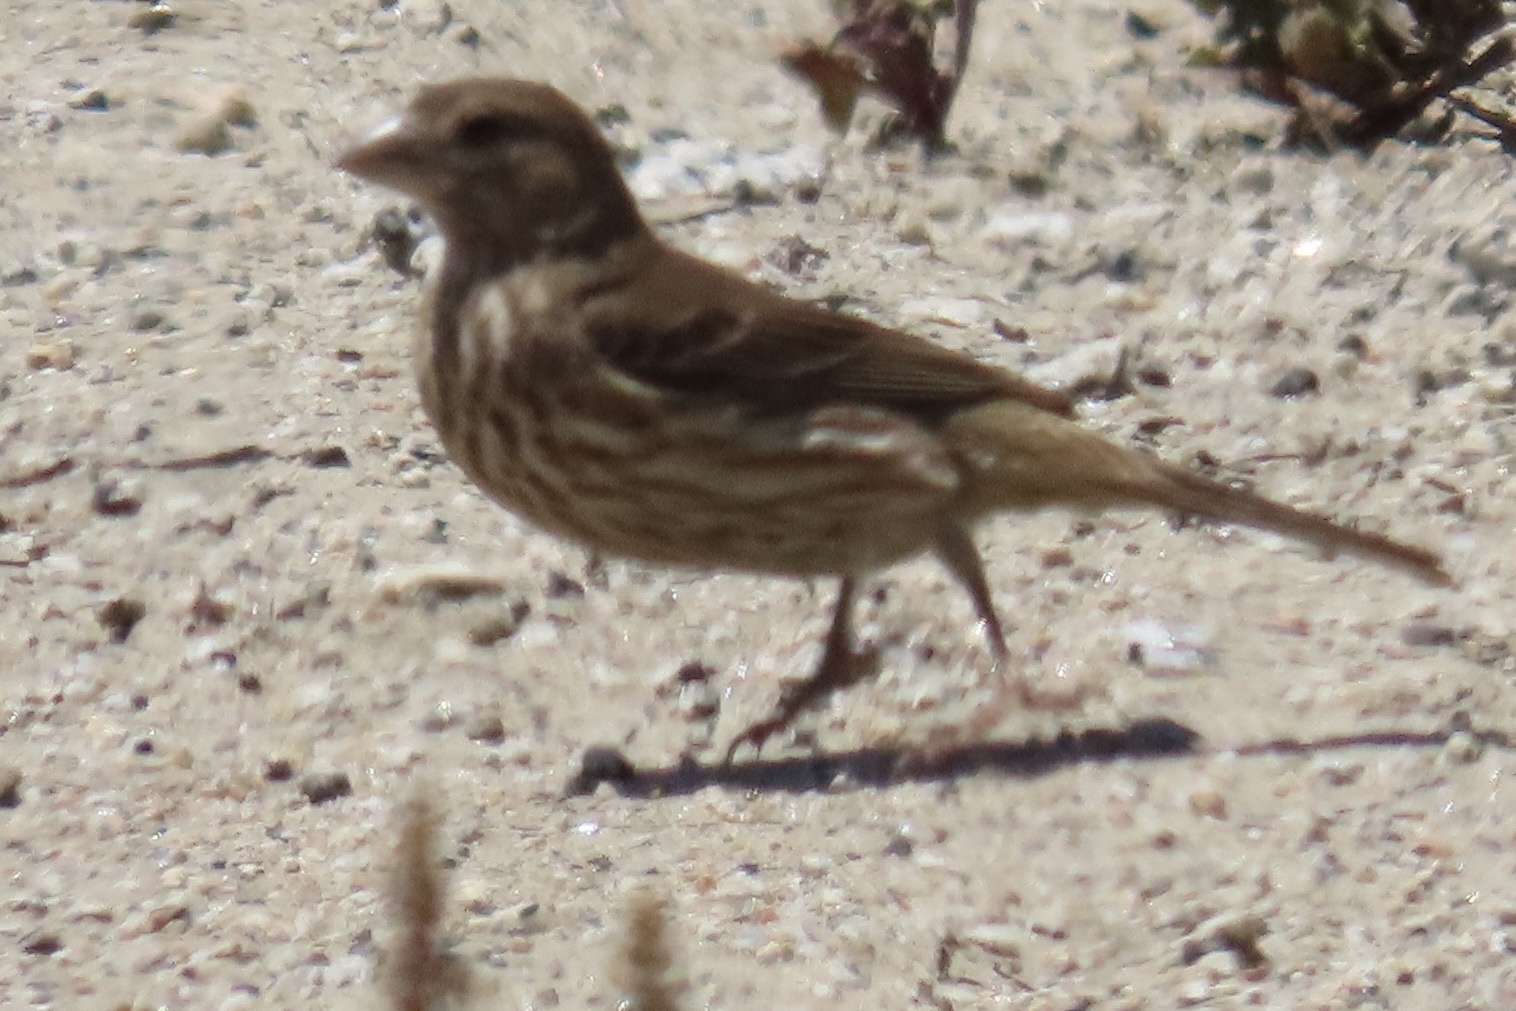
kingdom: Animalia
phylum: Chordata
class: Aves
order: Passeriformes
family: Fringillidae
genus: Haemorhous
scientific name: Haemorhous mexicanus
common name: House finch
